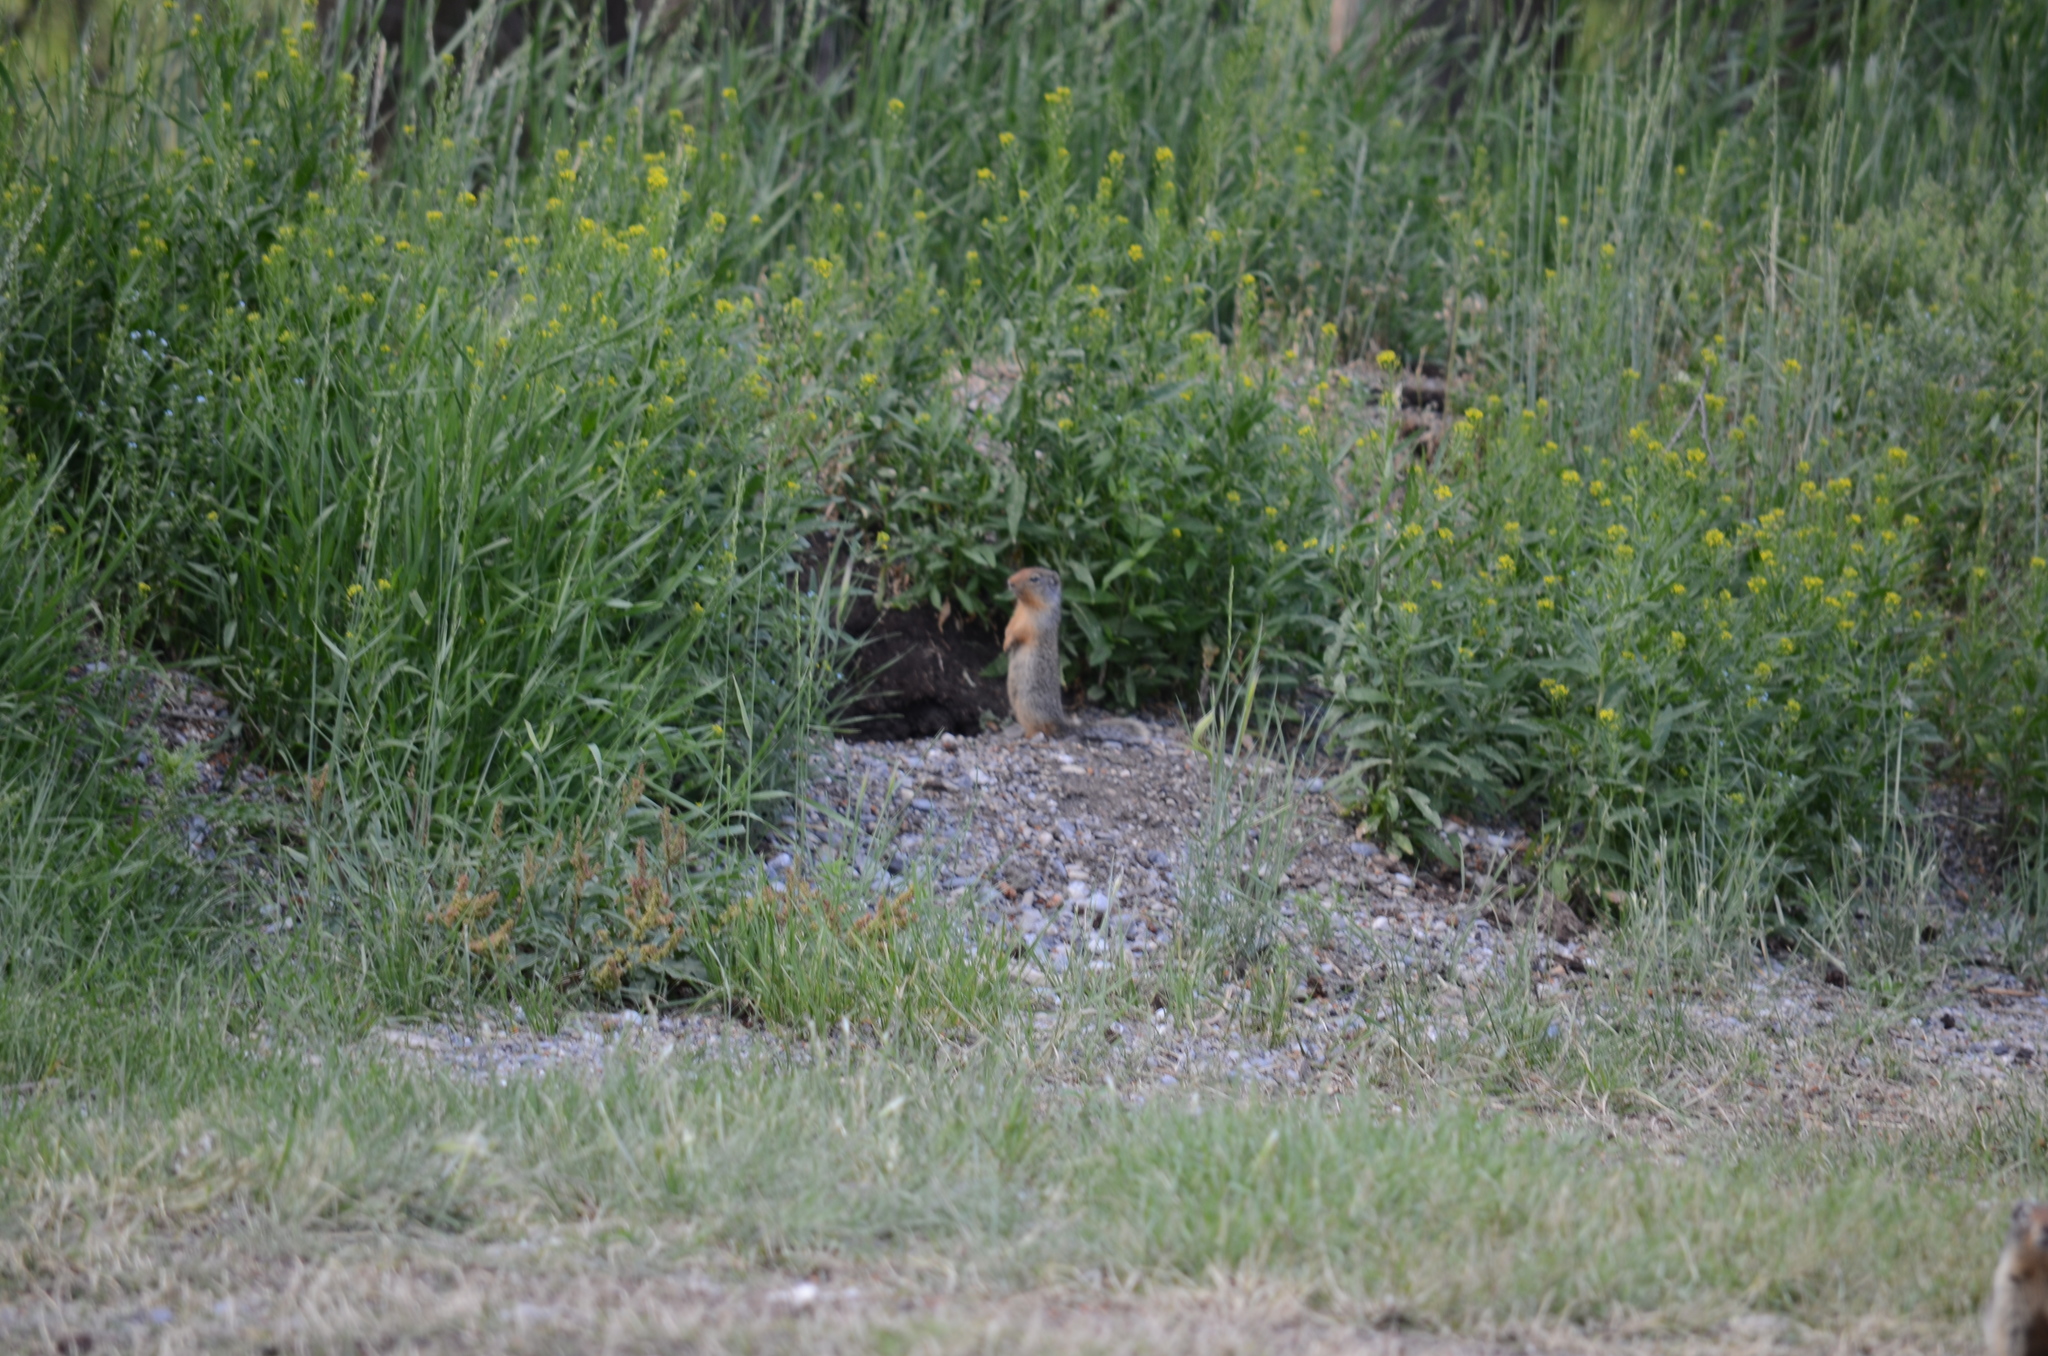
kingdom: Animalia
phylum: Chordata
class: Mammalia
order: Rodentia
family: Sciuridae
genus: Urocitellus
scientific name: Urocitellus columbianus
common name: Columbian ground squirrel
